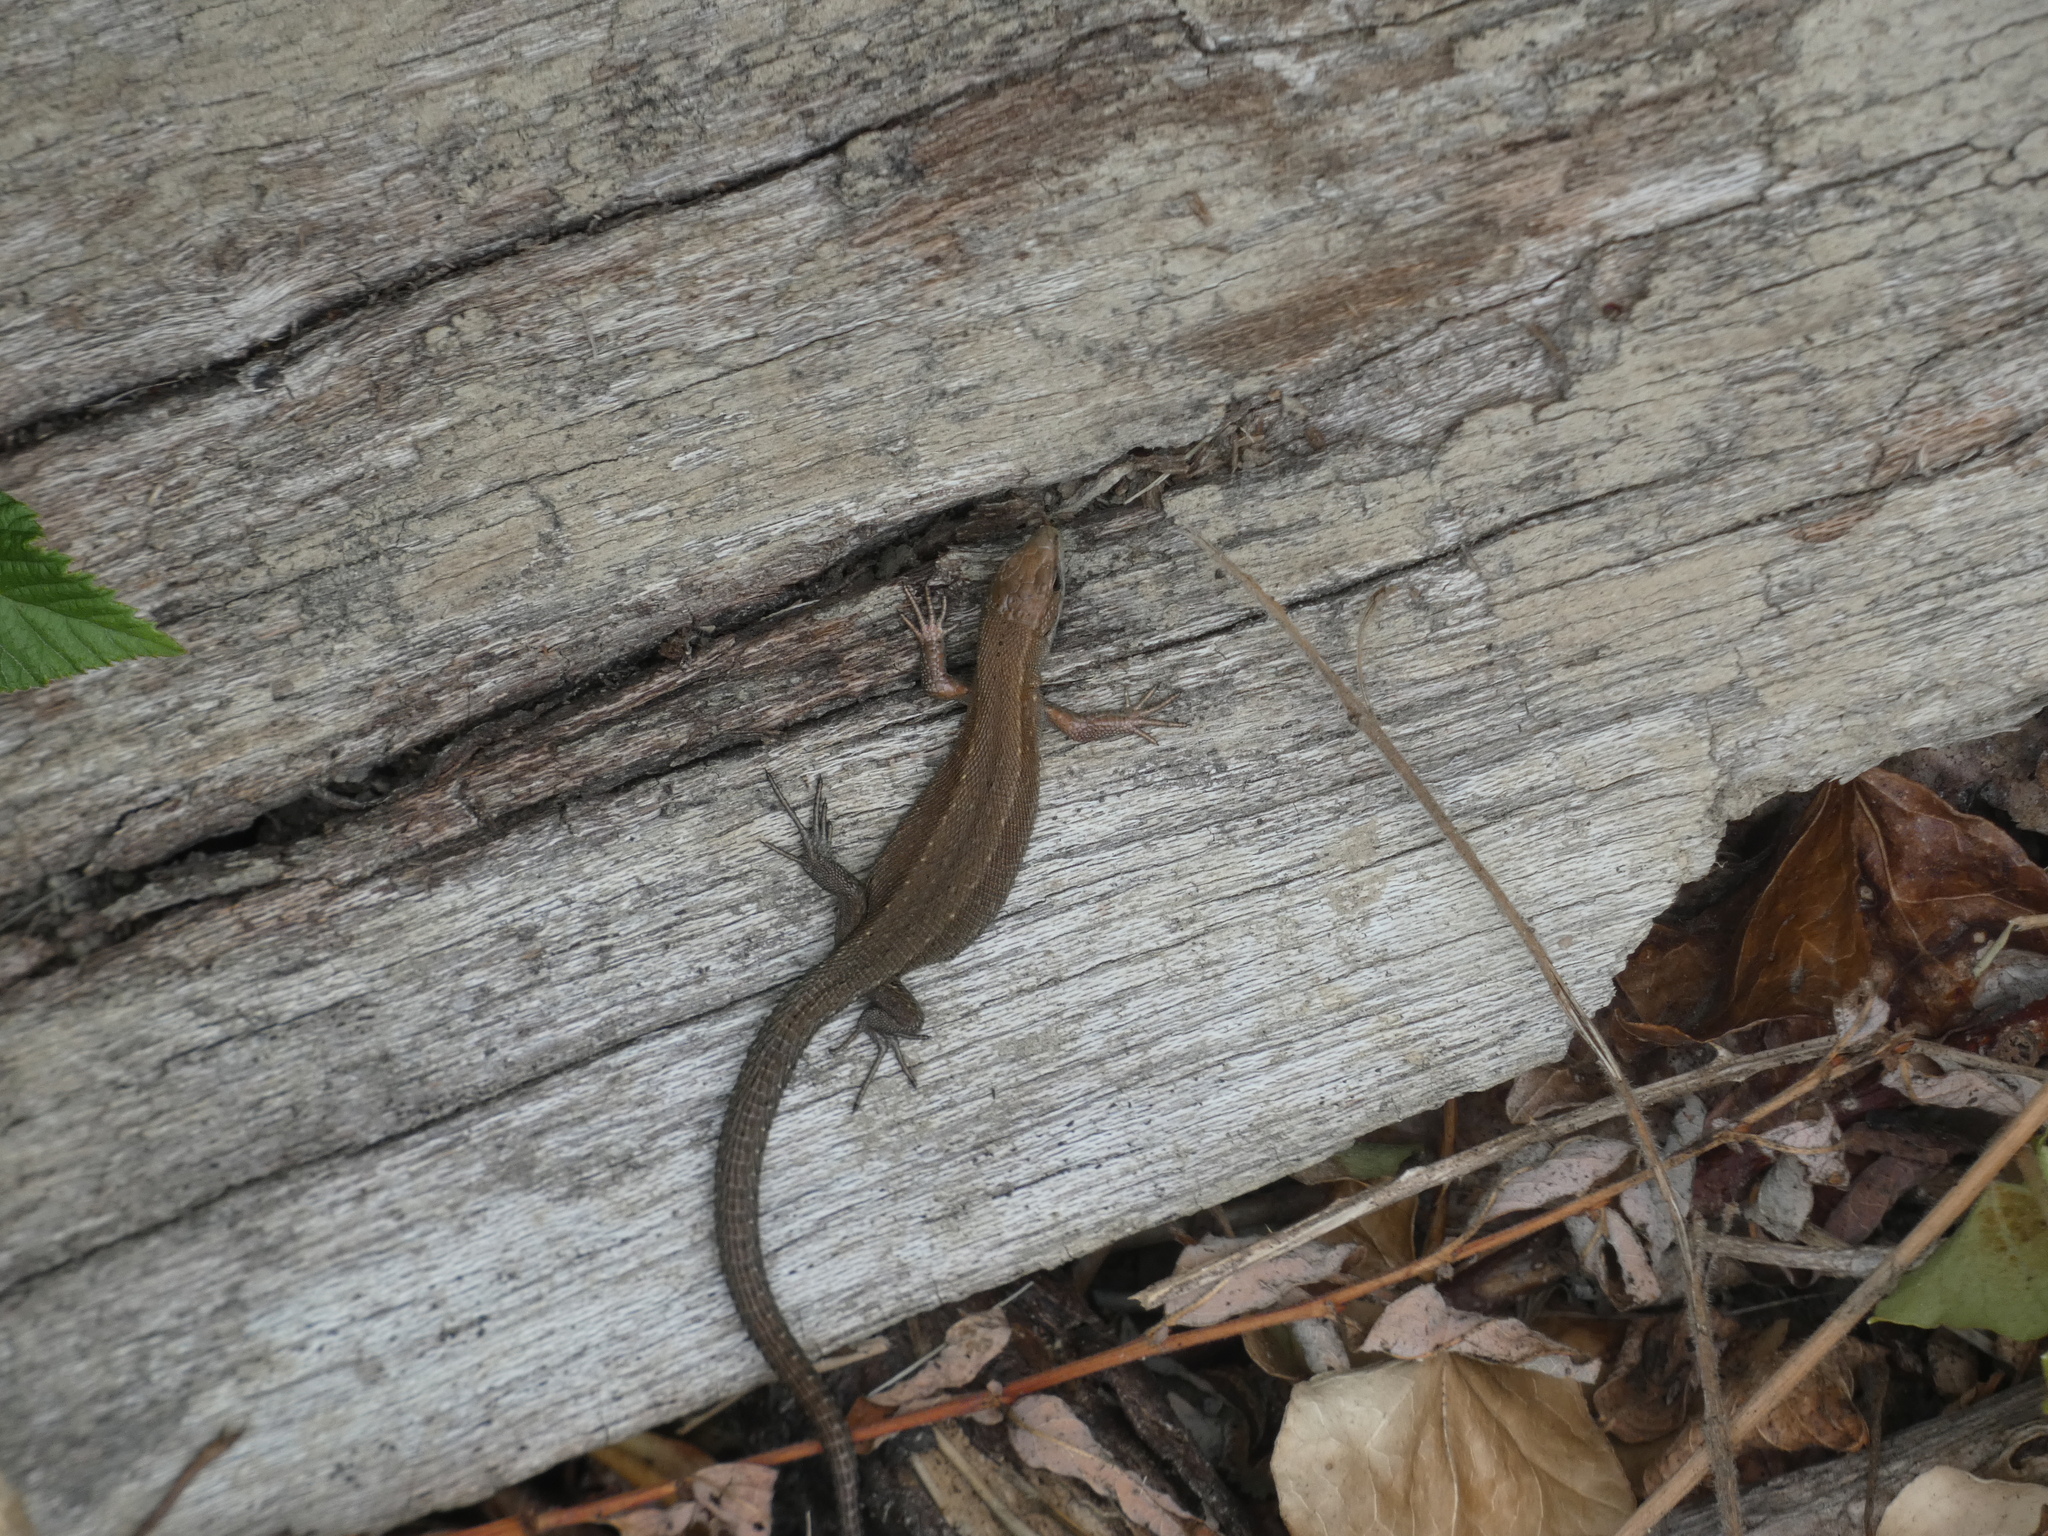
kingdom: Animalia
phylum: Chordata
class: Squamata
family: Lacertidae
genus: Zootoca
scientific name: Zootoca vivipara
